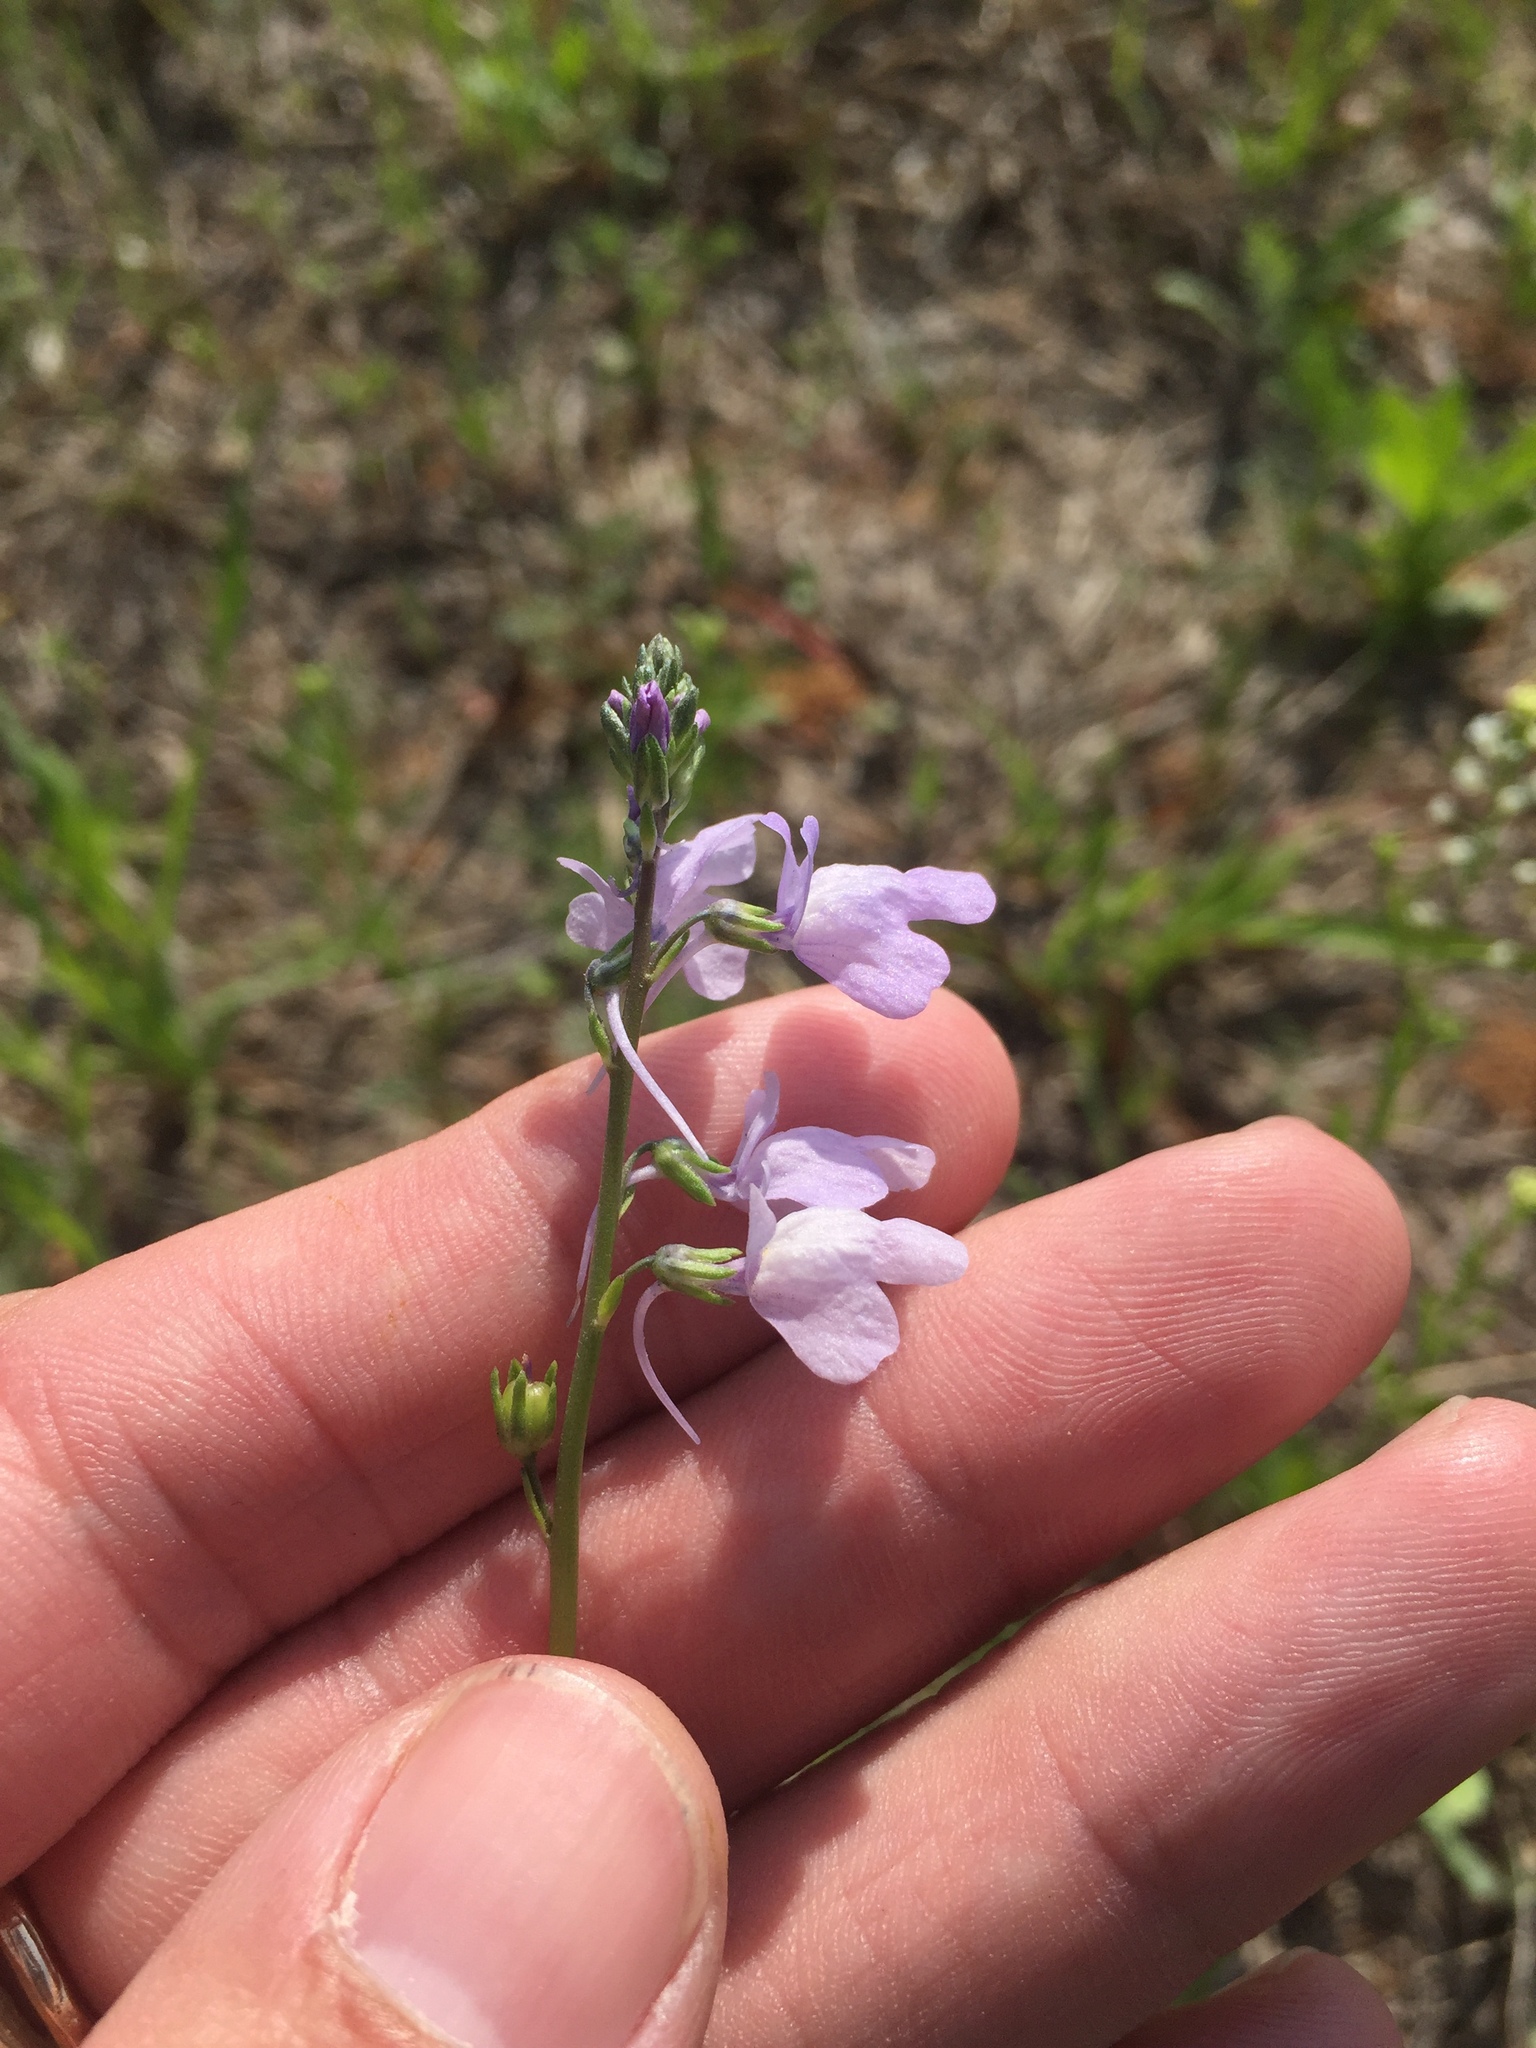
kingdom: Plantae
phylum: Tracheophyta
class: Magnoliopsida
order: Lamiales
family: Plantaginaceae
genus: Nuttallanthus
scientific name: Nuttallanthus texanus
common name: Texas toadflax
